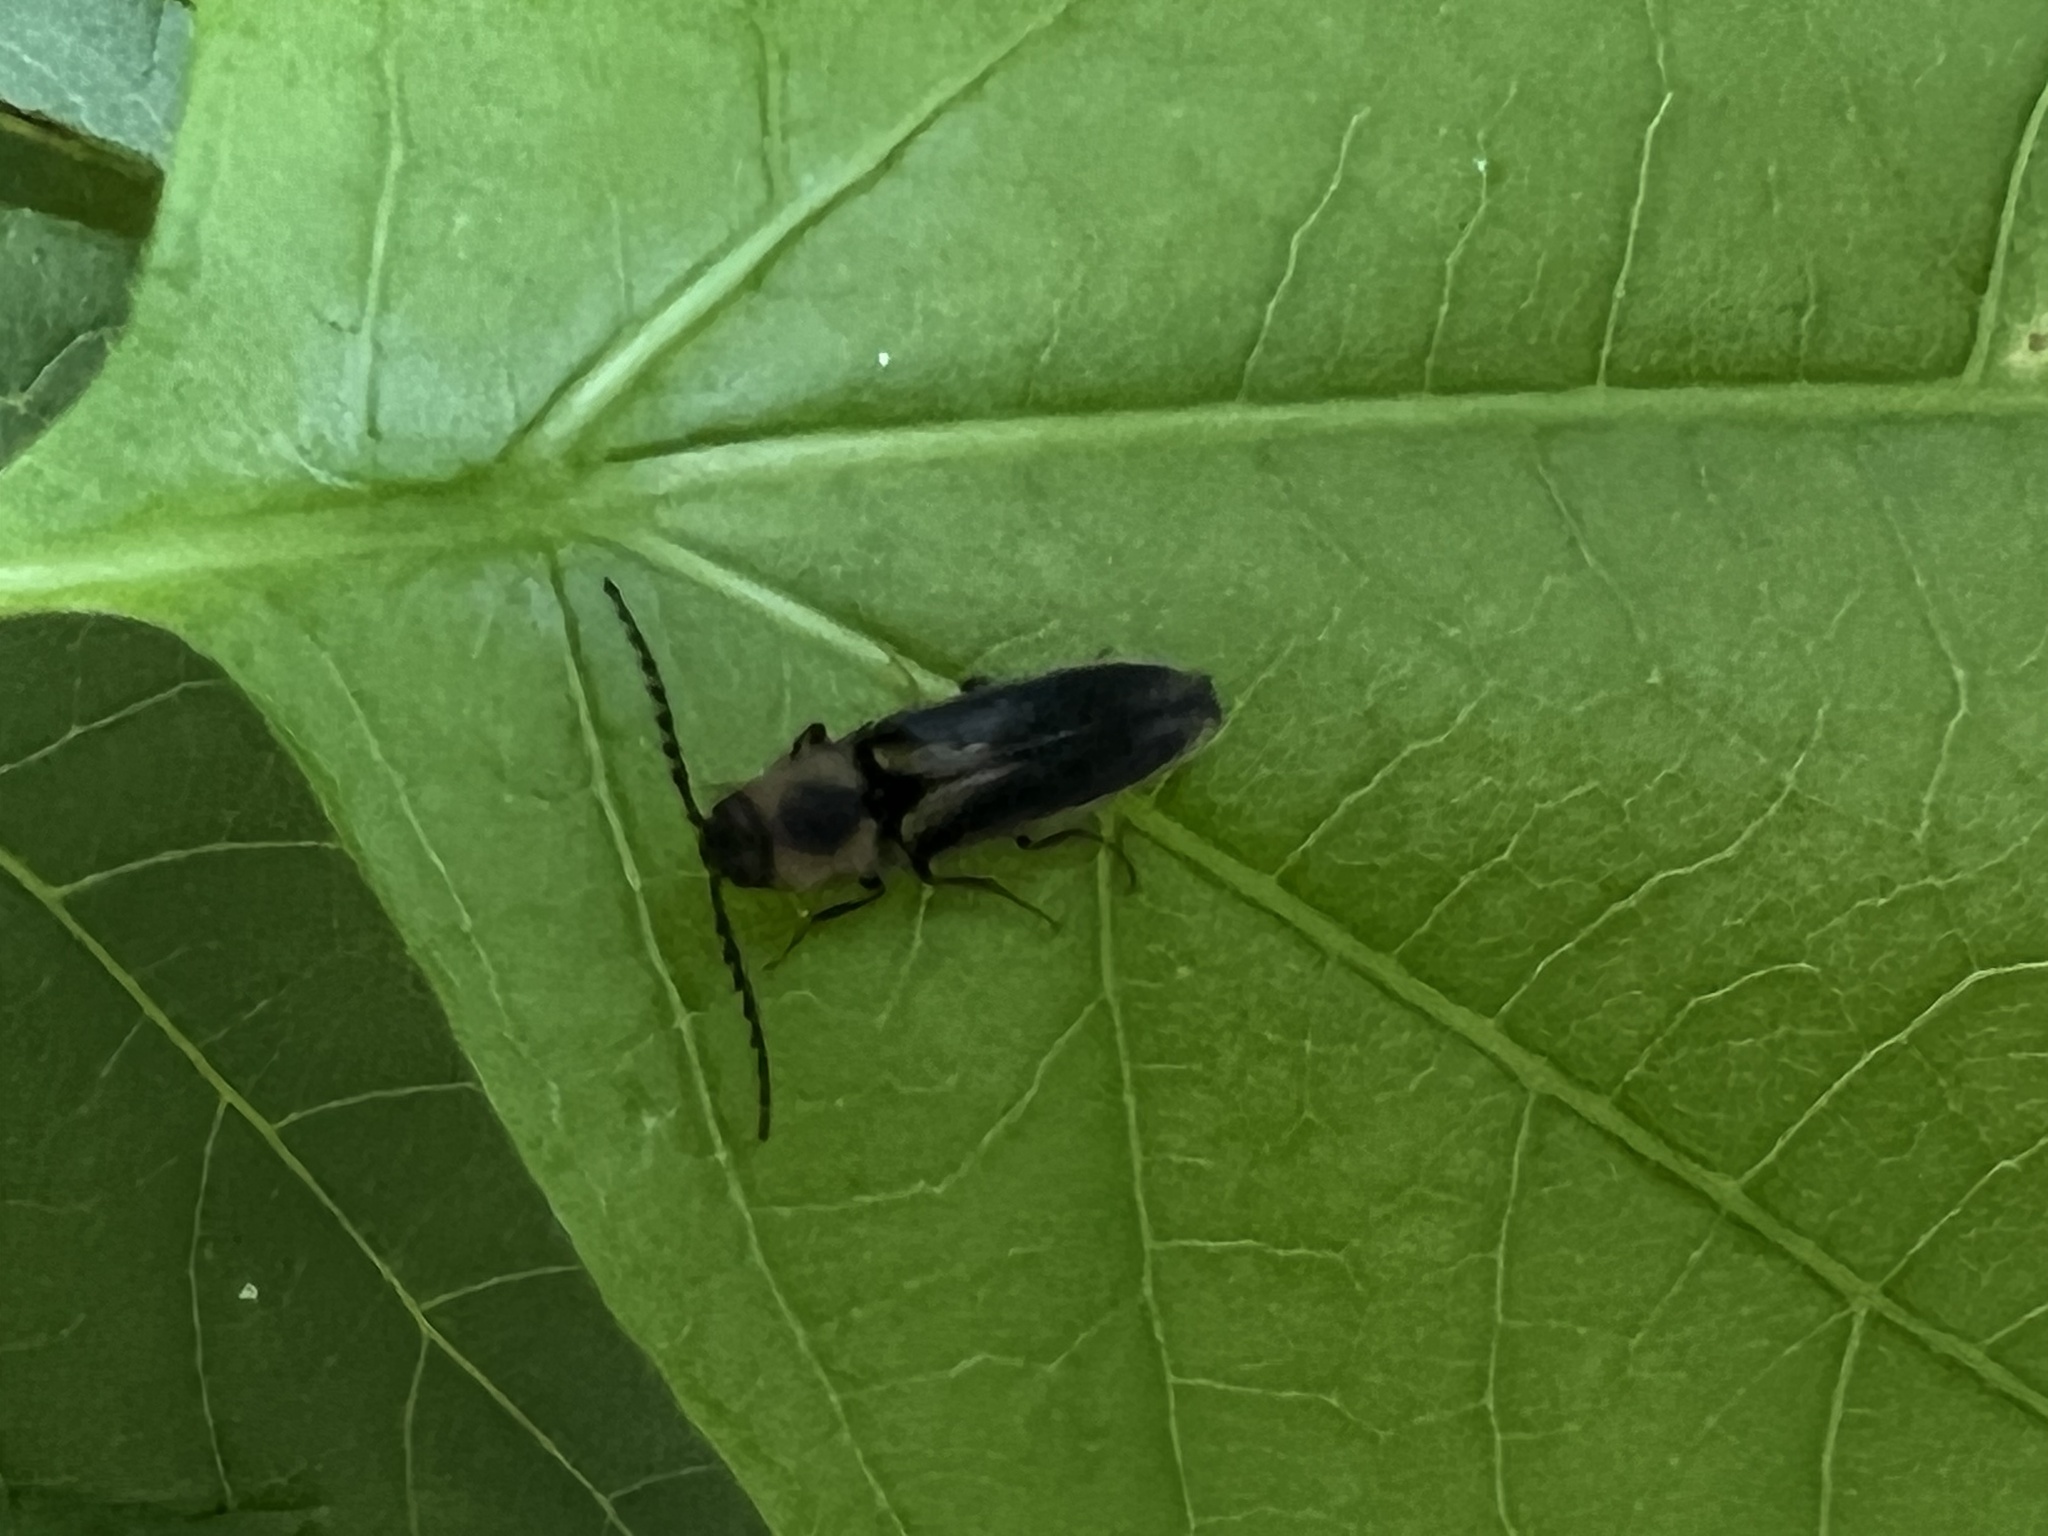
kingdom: Animalia
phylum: Arthropoda
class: Insecta
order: Coleoptera
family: Elateridae
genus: Megapenthes
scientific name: Megapenthes
